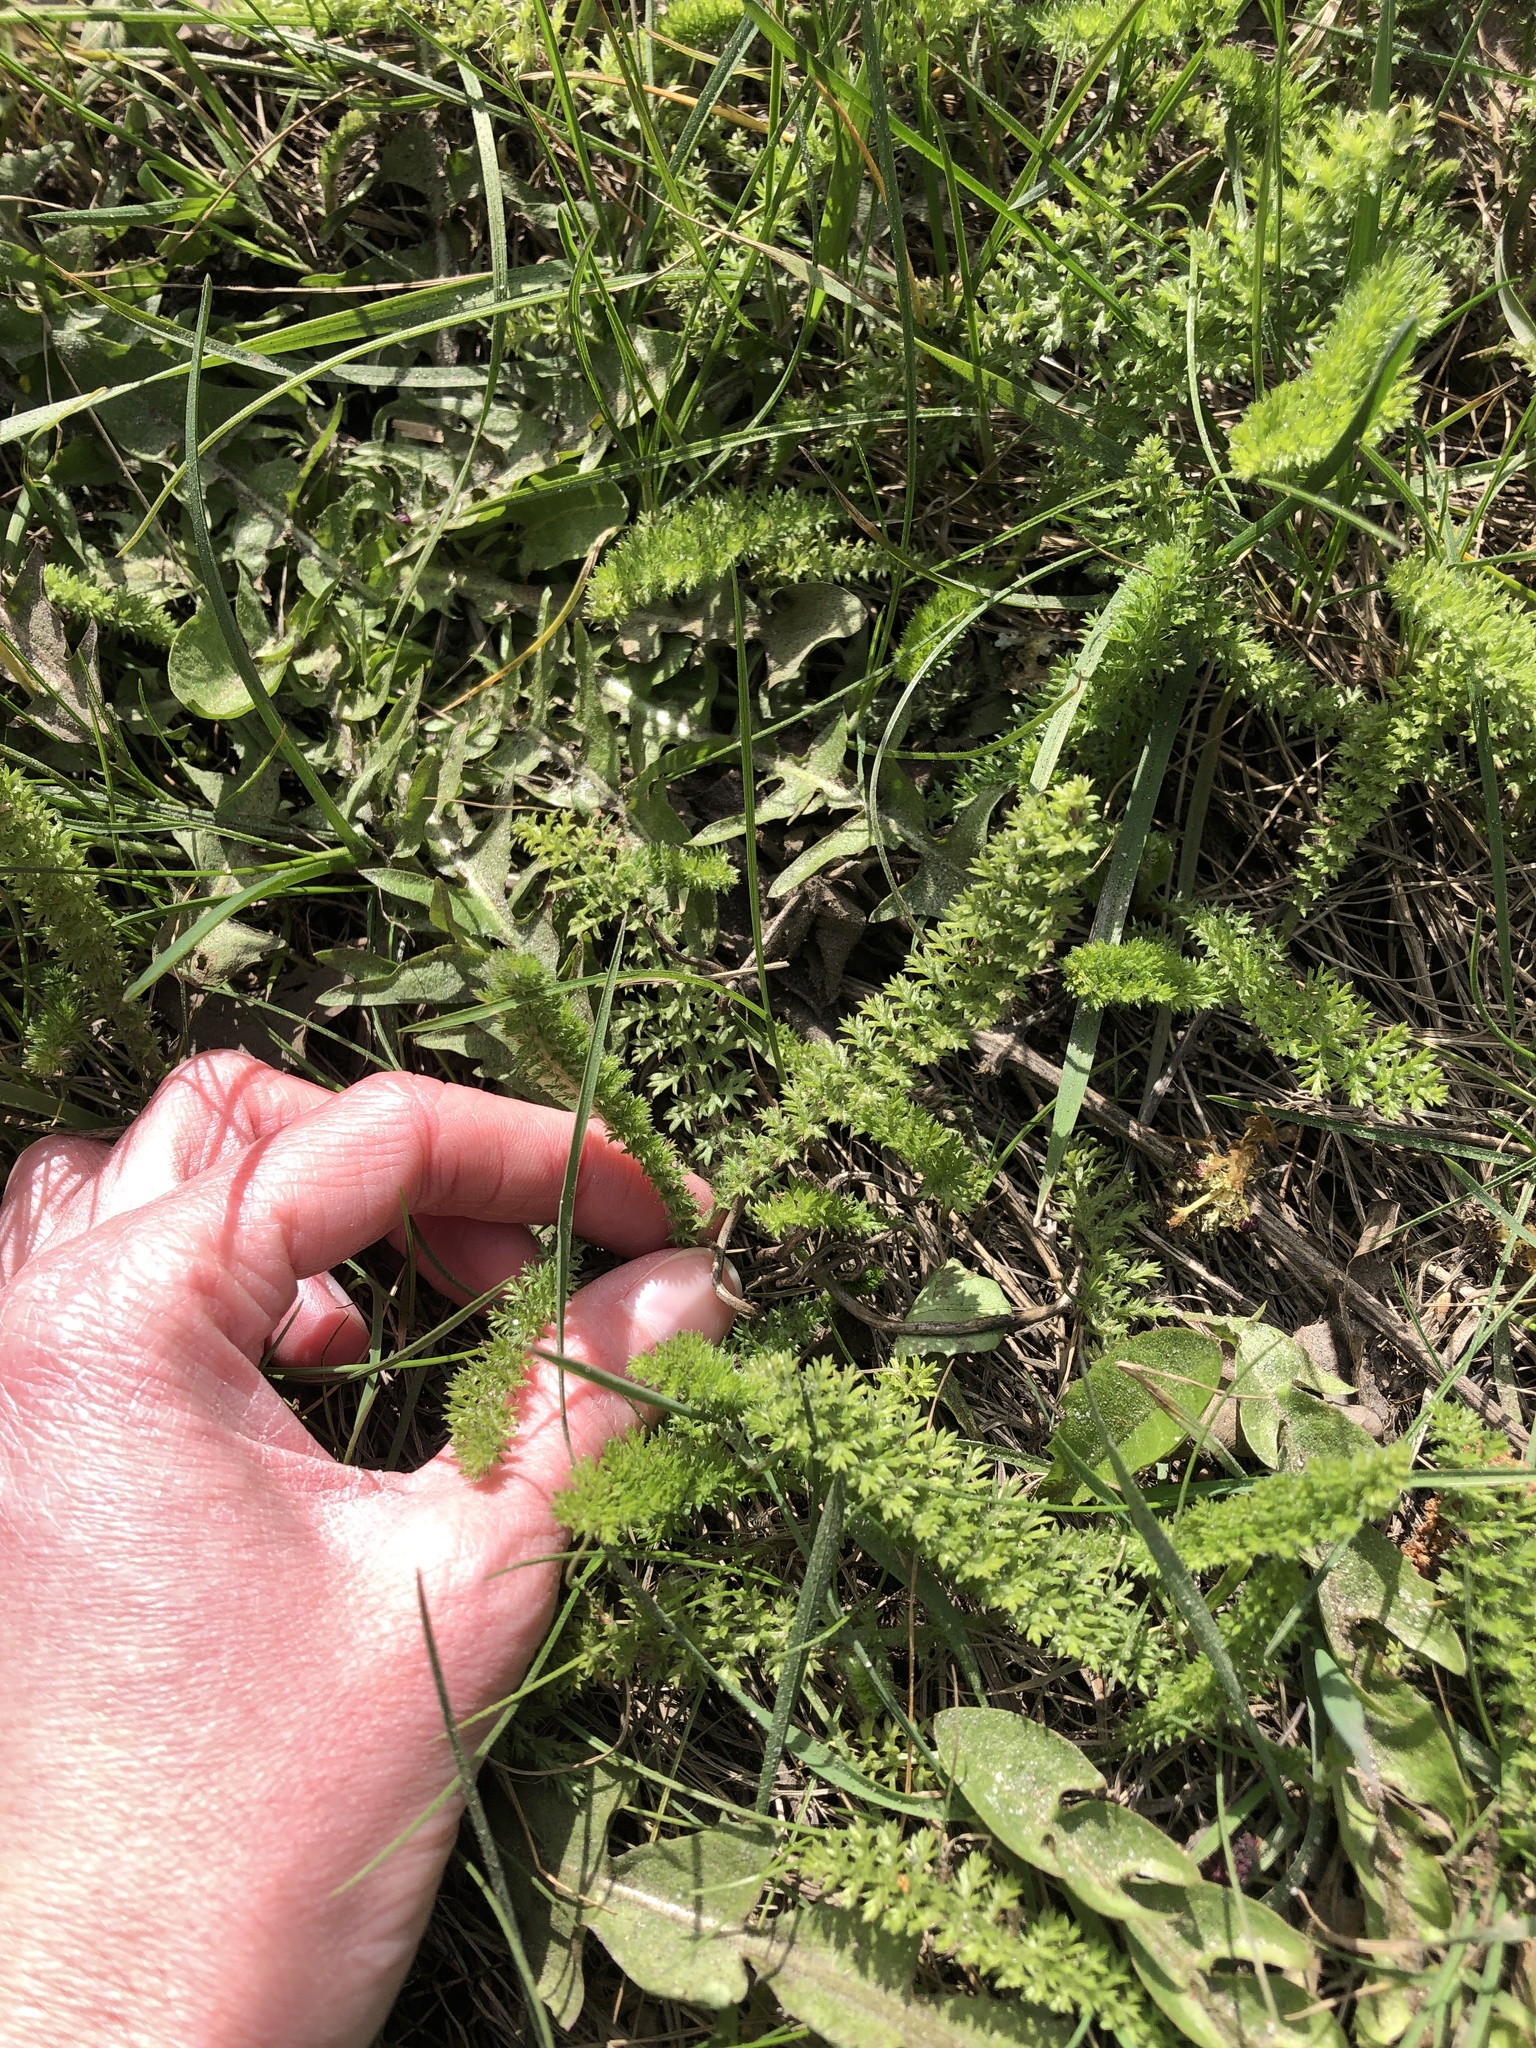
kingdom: Plantae
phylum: Tracheophyta
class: Magnoliopsida
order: Asterales
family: Asteraceae
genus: Achillea
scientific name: Achillea millefolium
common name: Yarrow
